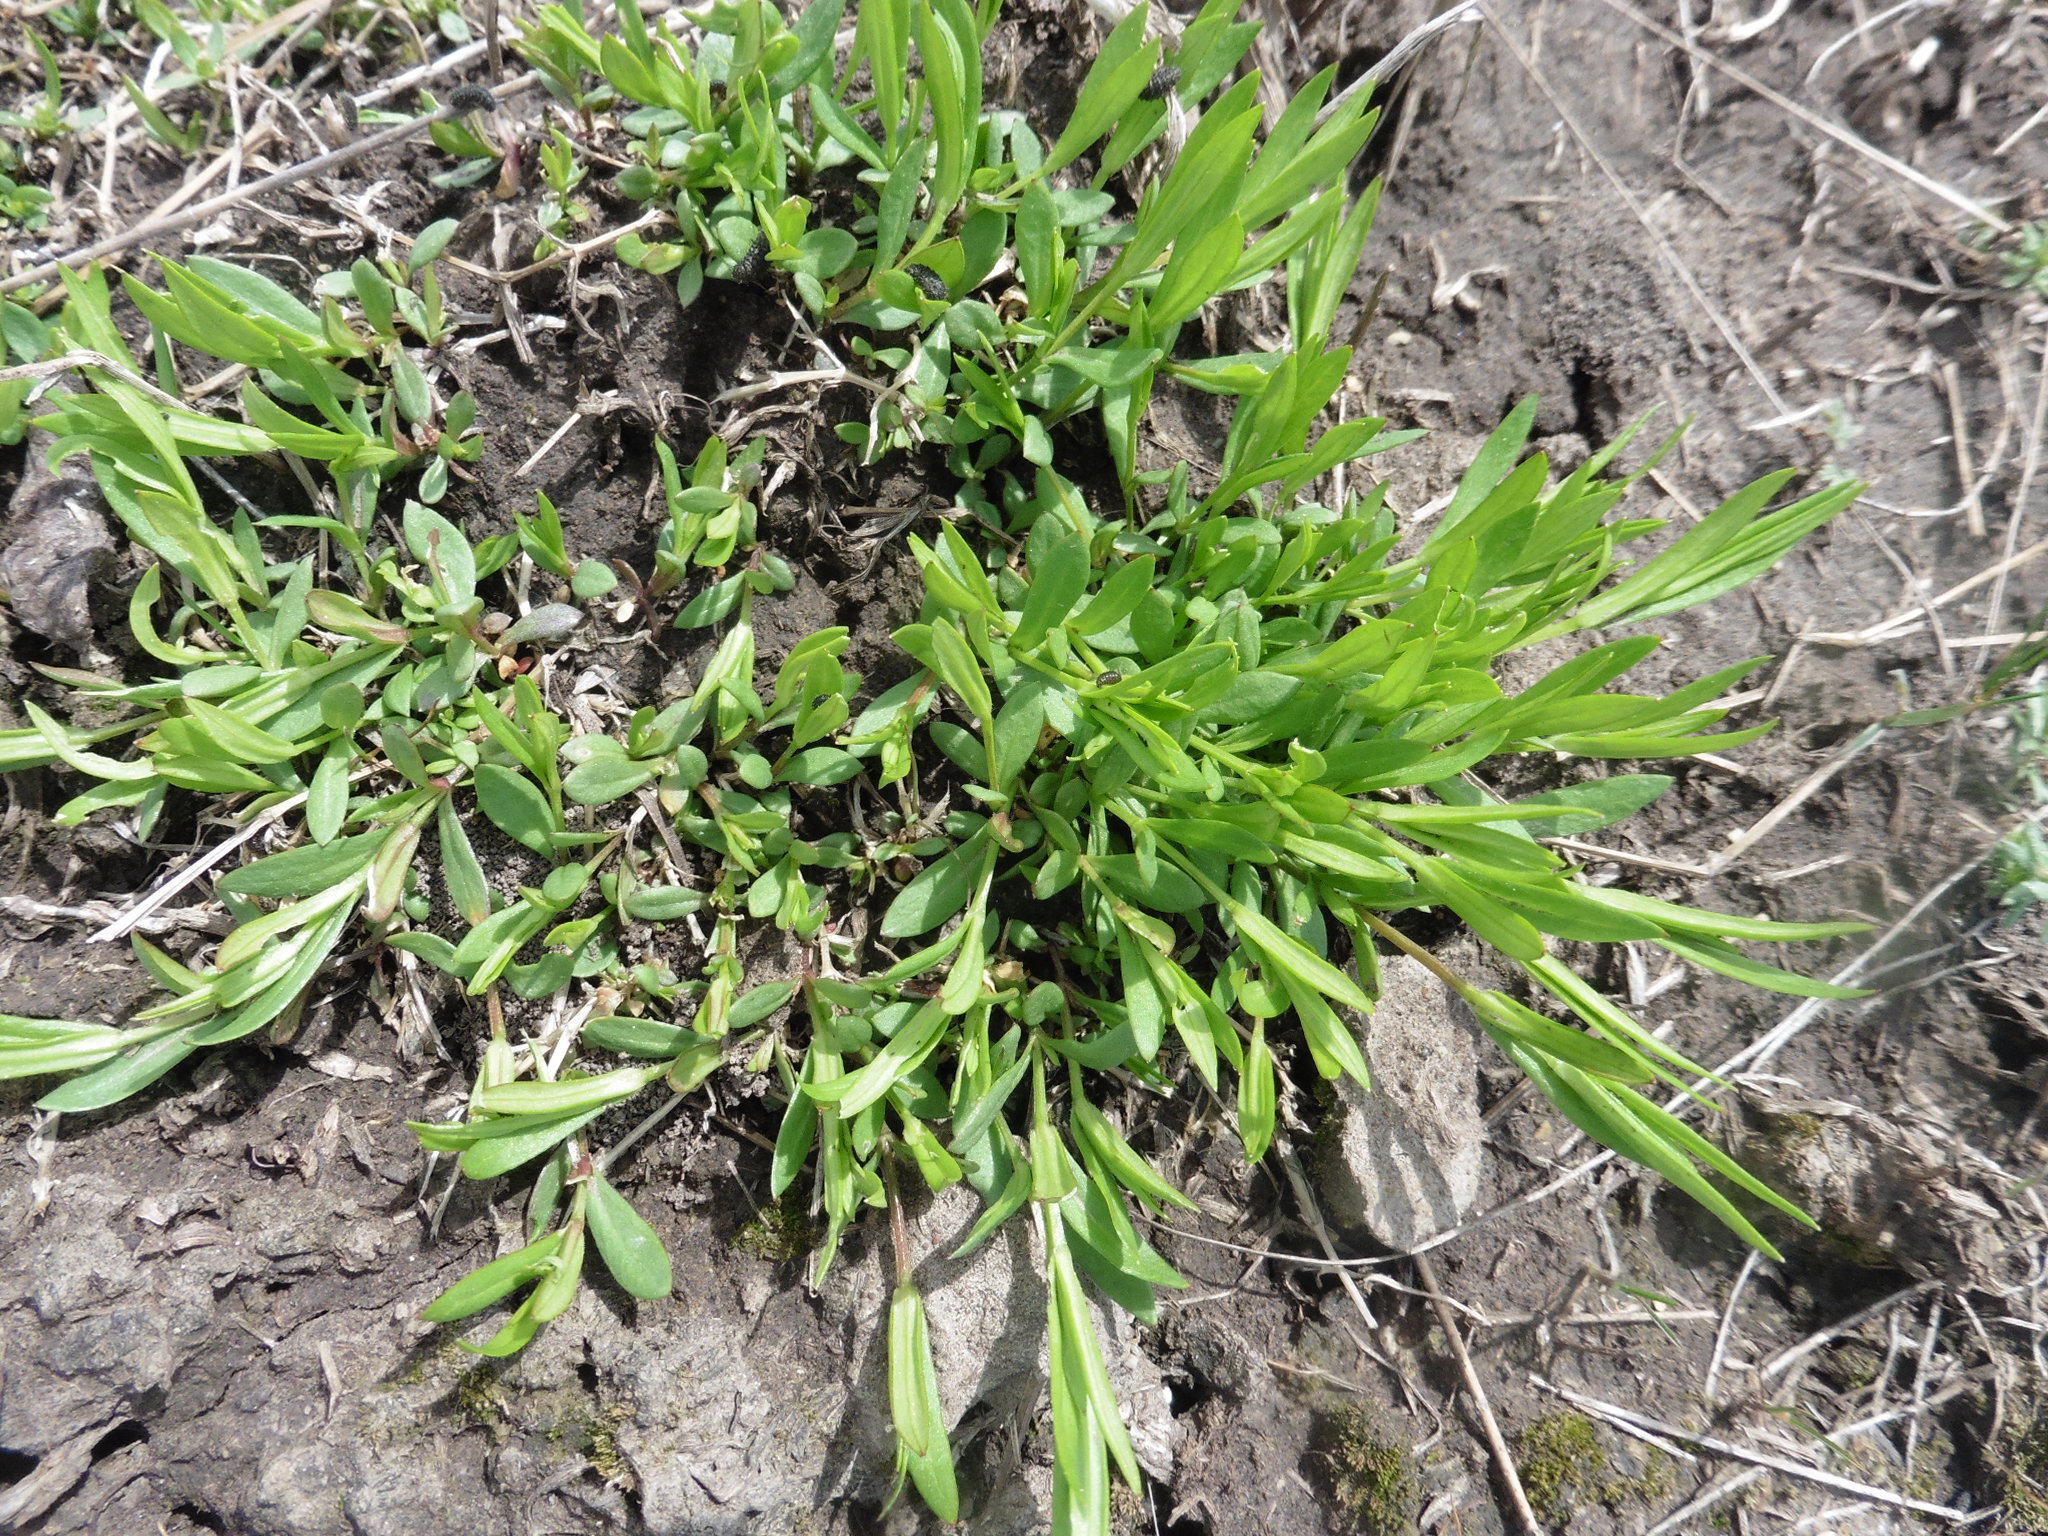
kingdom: Plantae
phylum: Tracheophyta
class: Magnoliopsida
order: Caryophyllales
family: Caryophyllaceae
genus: Stellaria
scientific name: Stellaria graminea
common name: Grass-like starwort
